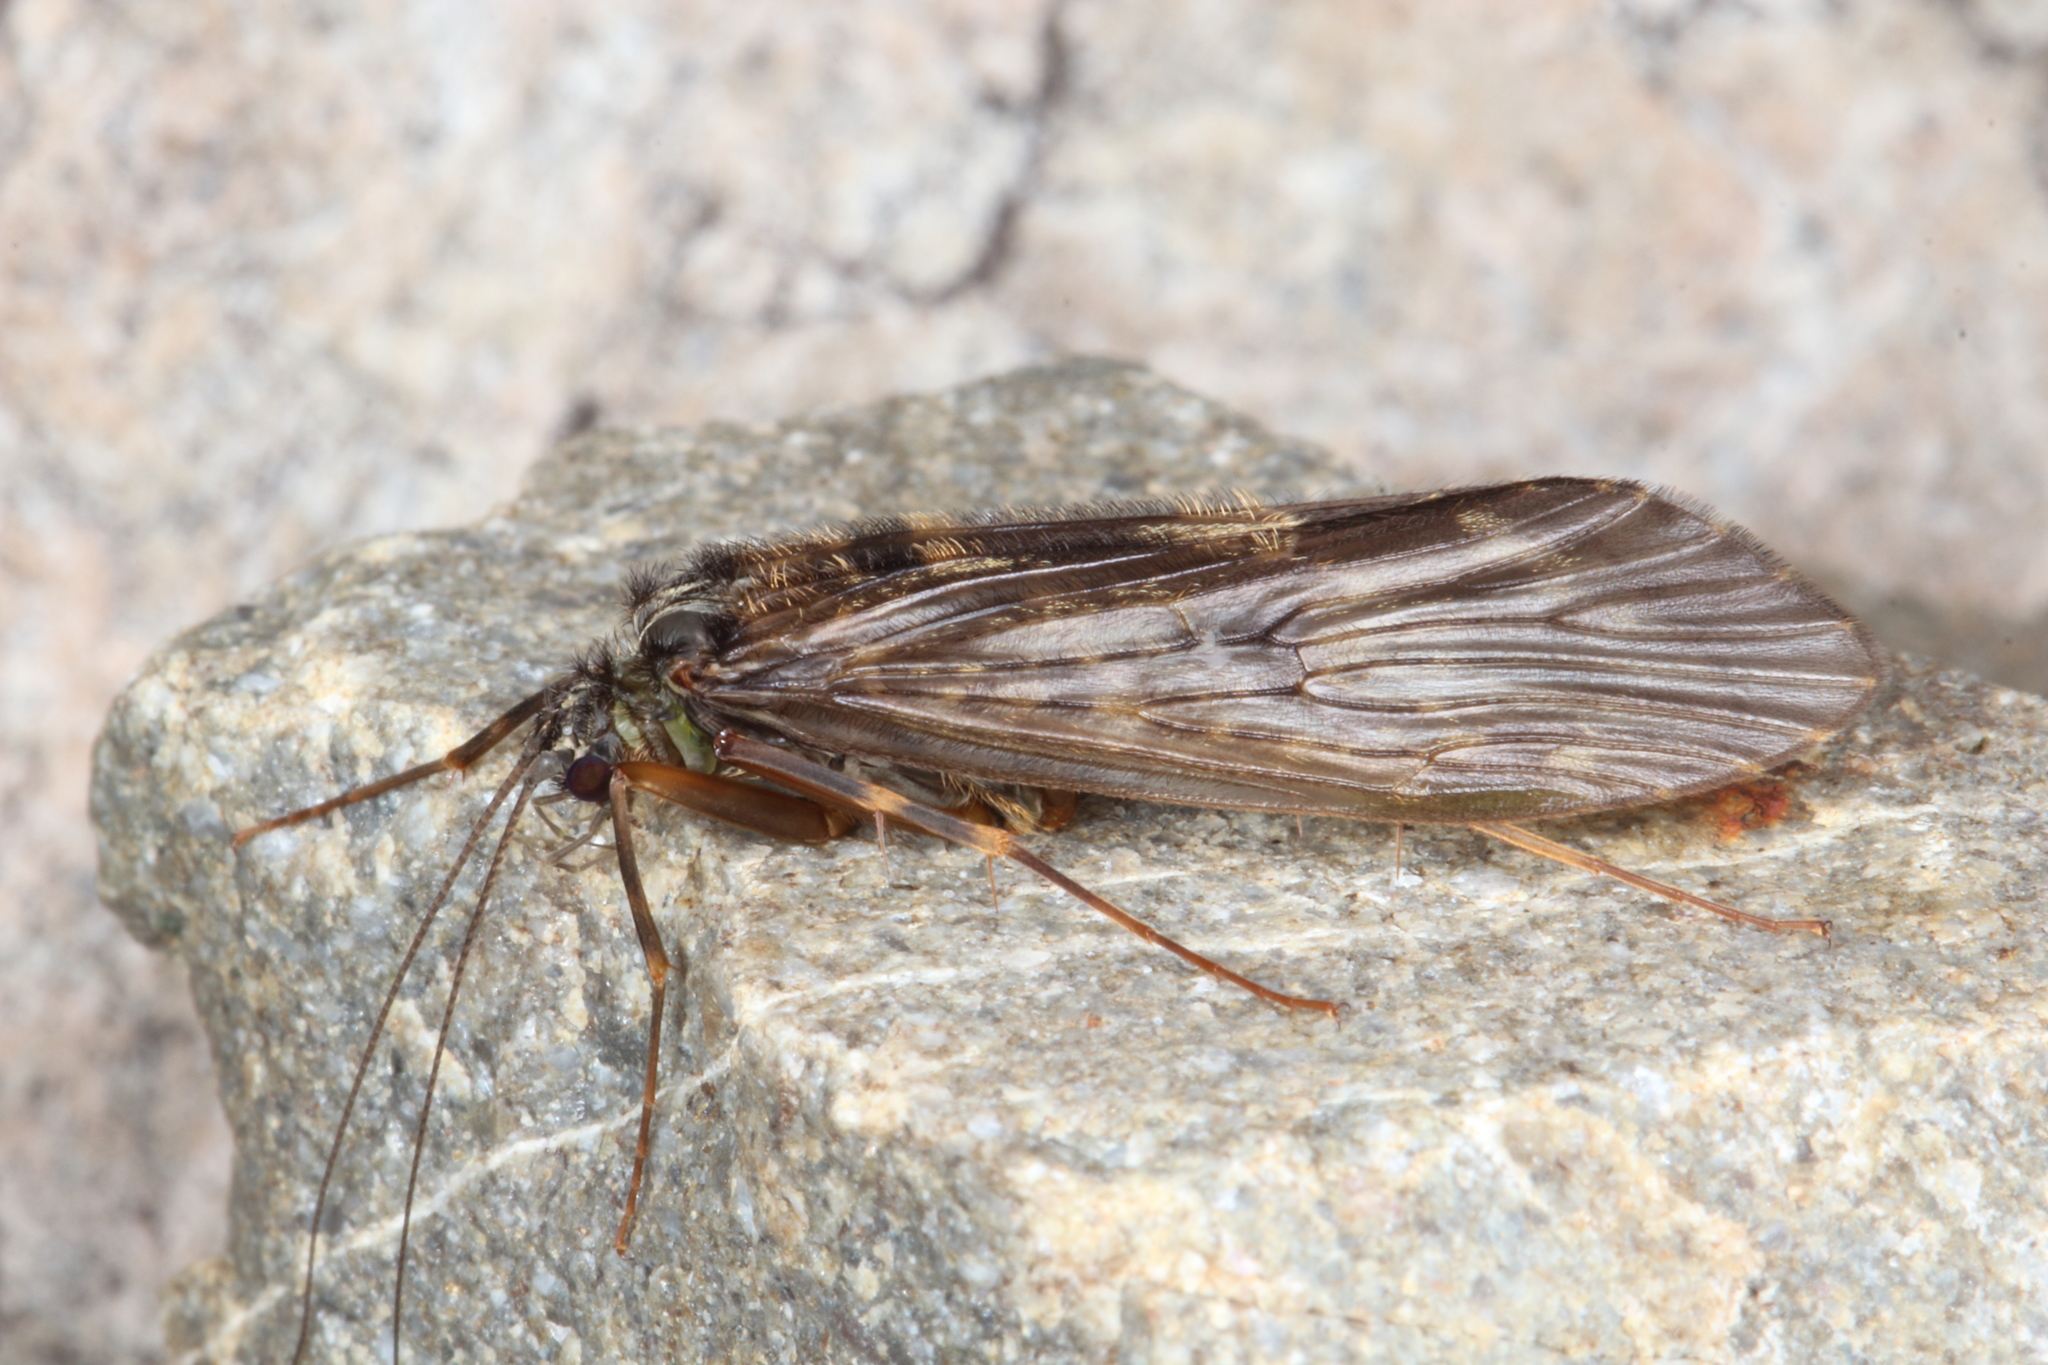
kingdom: Animalia
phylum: Arthropoda
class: Insecta
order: Trichoptera
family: Hydrobiosidae
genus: Costachorema
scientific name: Costachorema brachypterum
